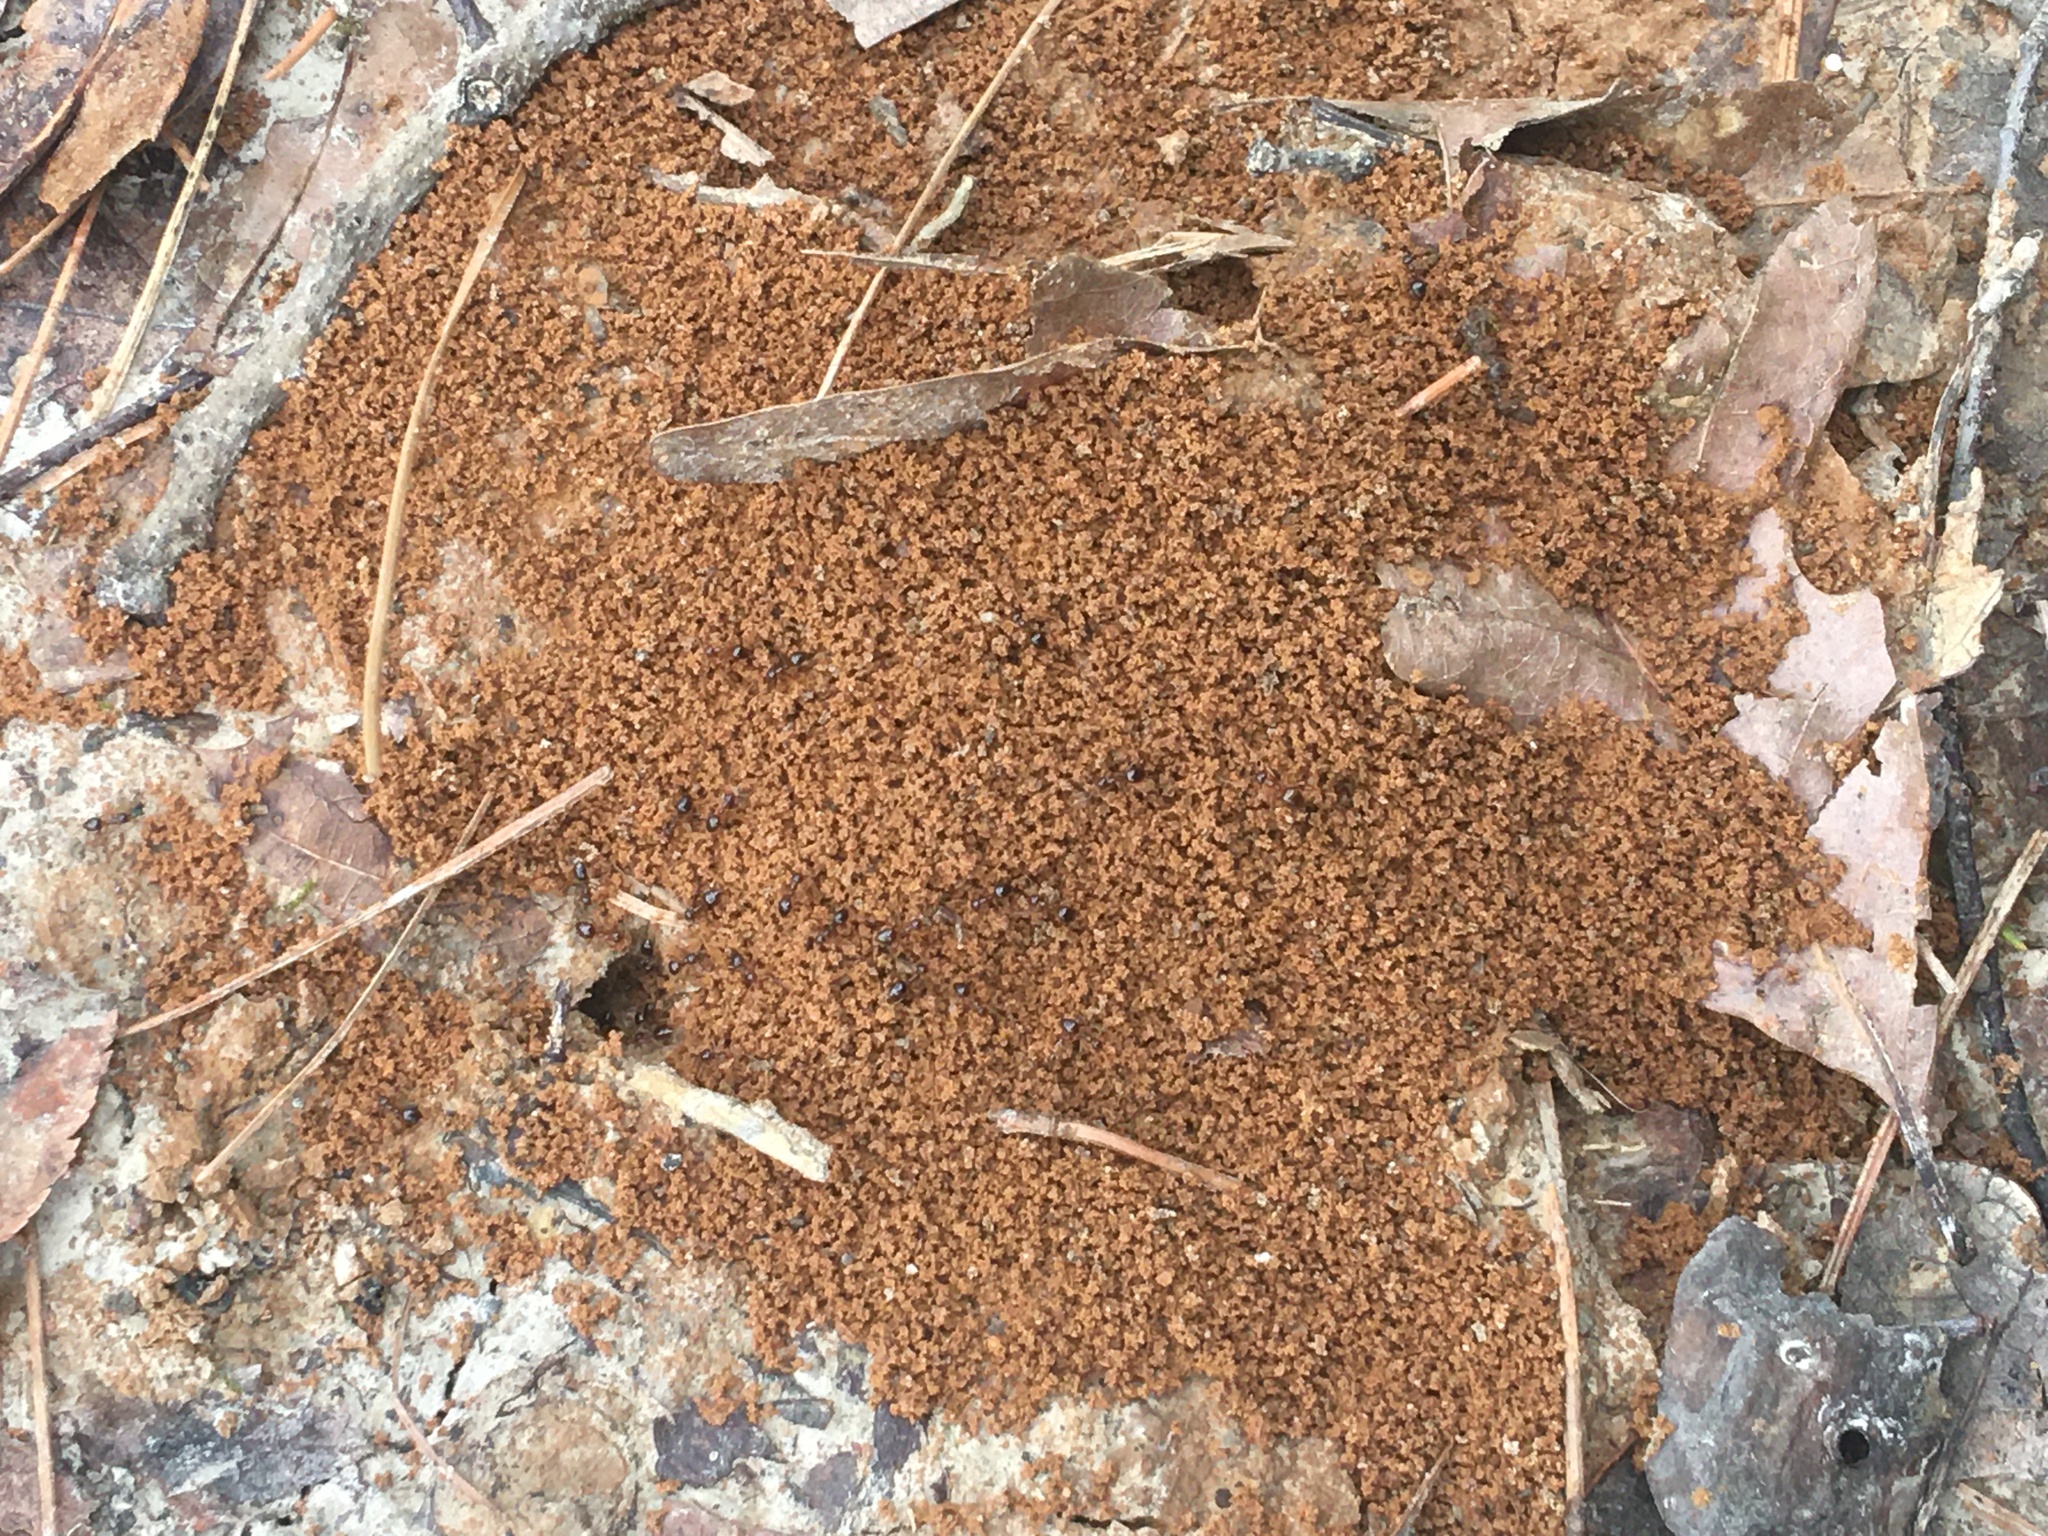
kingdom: Animalia
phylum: Arthropoda
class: Insecta
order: Hymenoptera
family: Formicidae
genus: Prenolepis
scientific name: Prenolepis imparis
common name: Small honey ant
